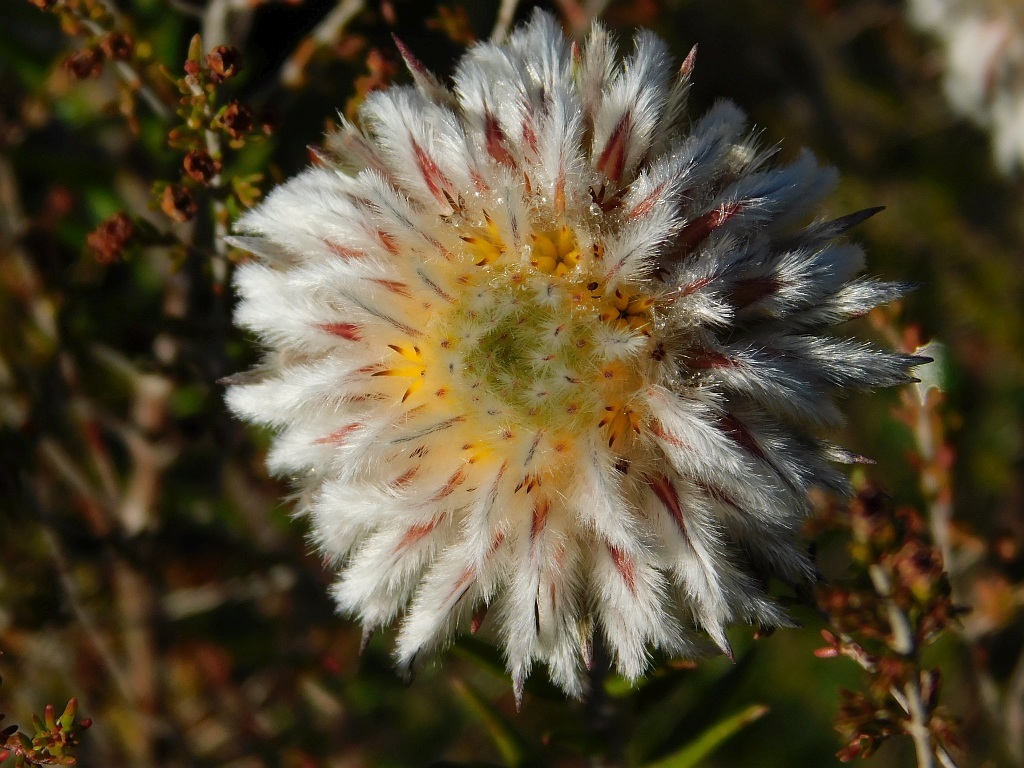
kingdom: Plantae
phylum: Tracheophyta
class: Magnoliopsida
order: Rosales
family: Rhamnaceae
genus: Phylica
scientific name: Phylica calcarata
